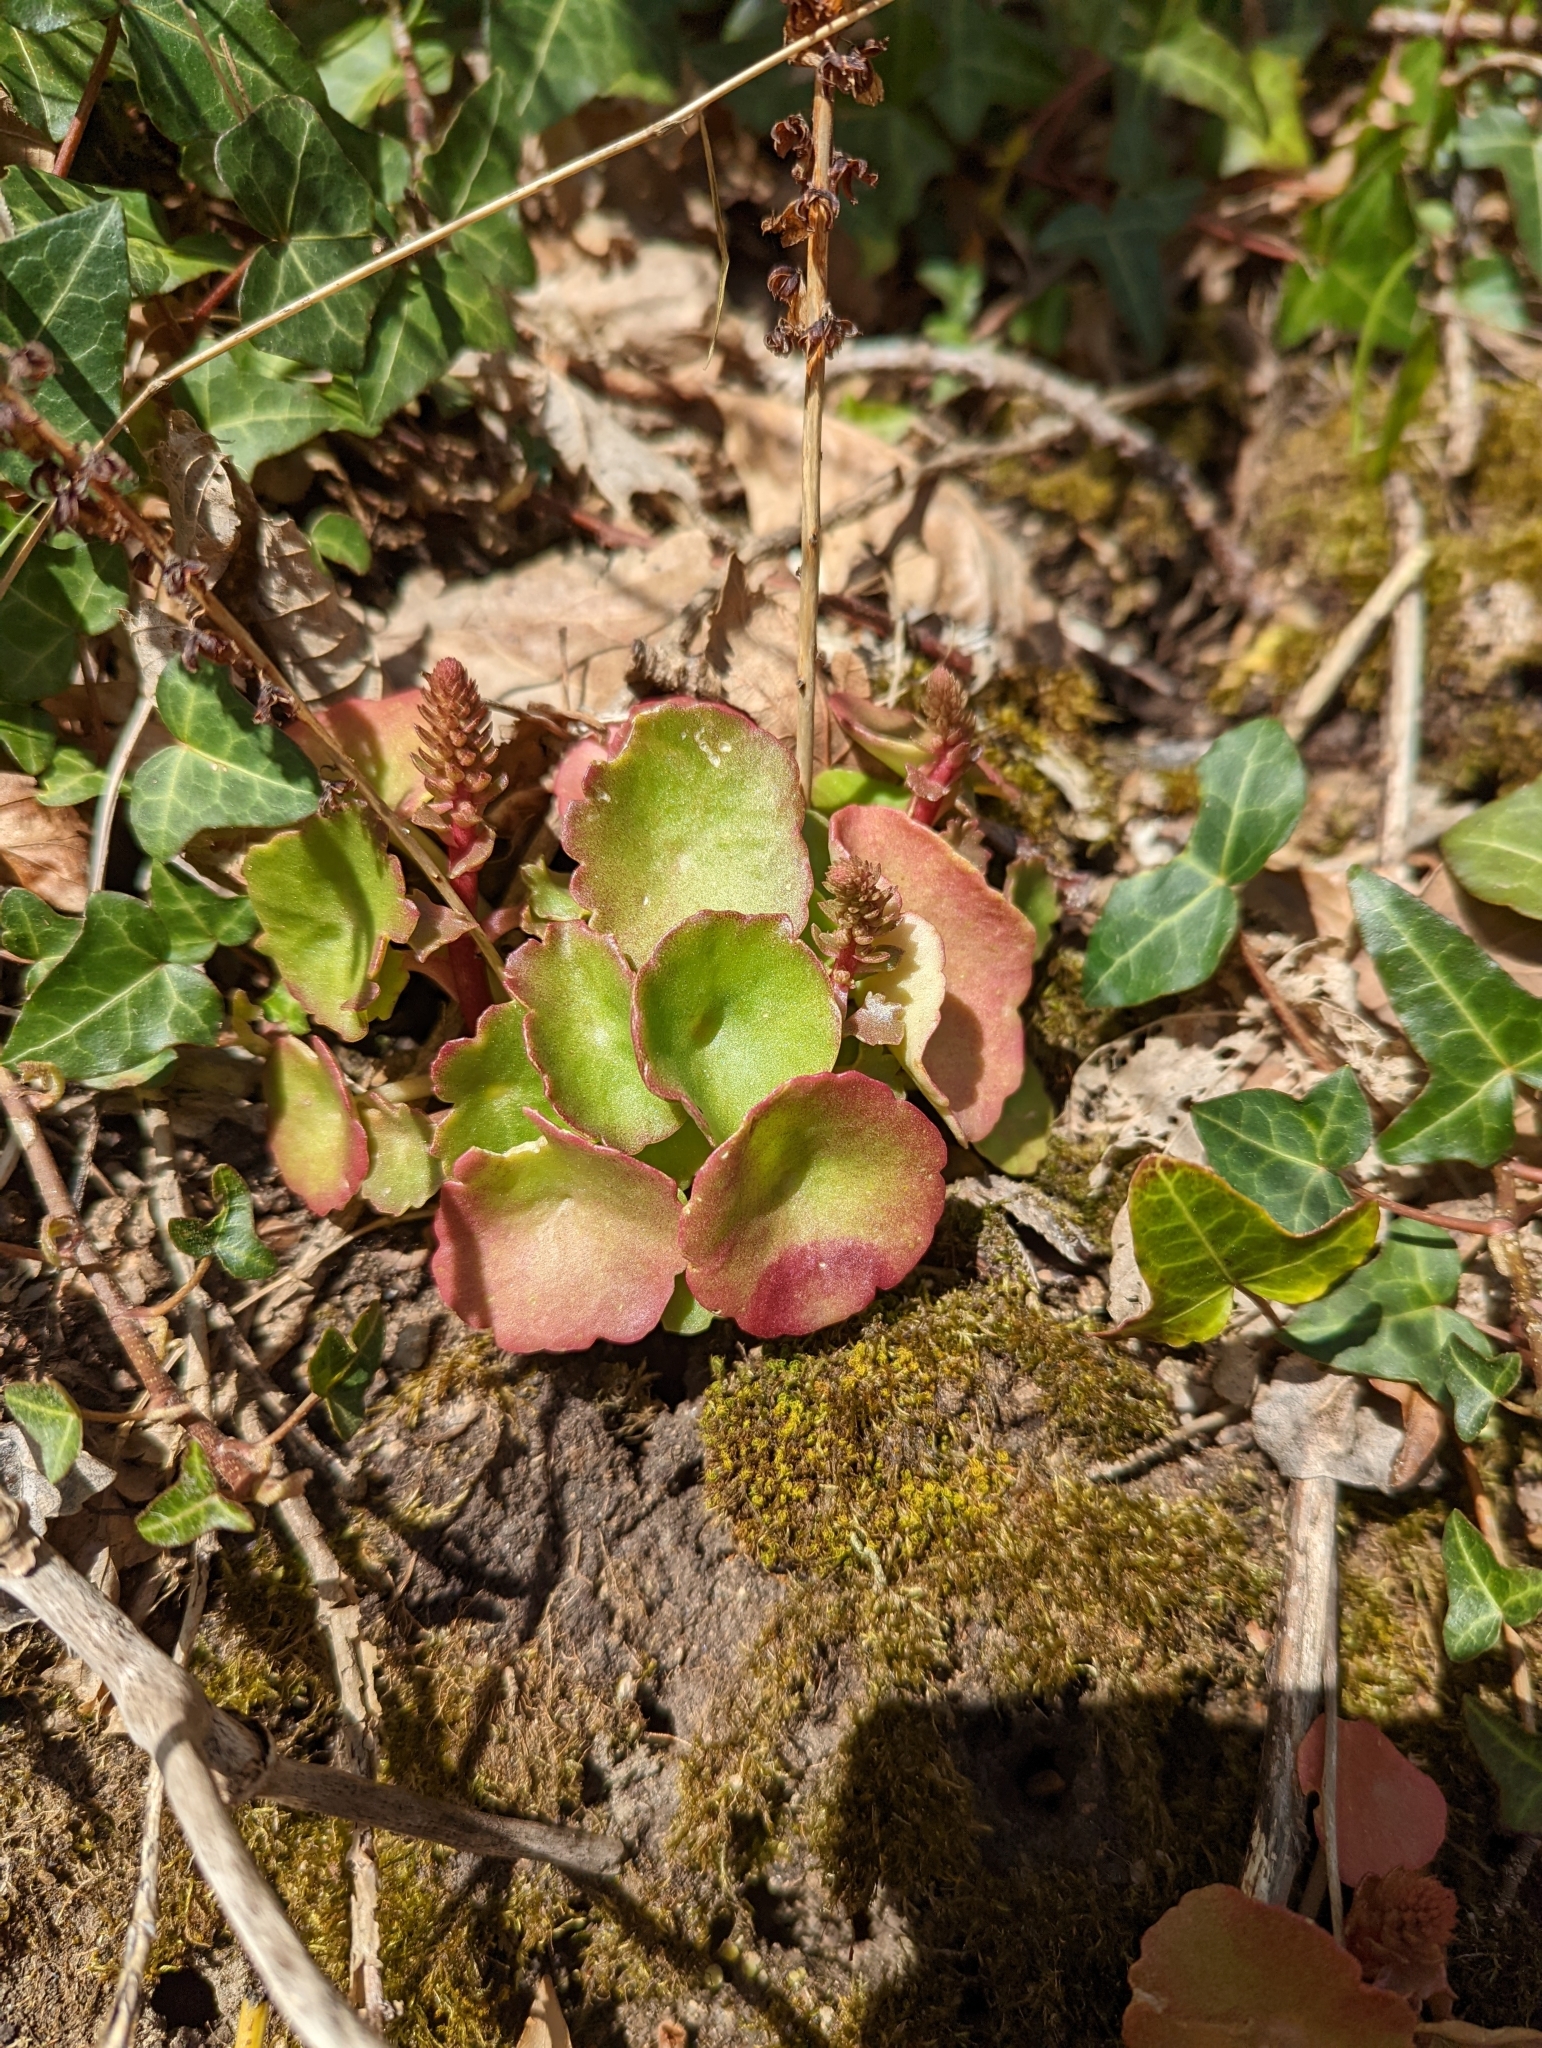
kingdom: Plantae
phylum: Tracheophyta
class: Magnoliopsida
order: Saxifragales
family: Crassulaceae
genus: Umbilicus
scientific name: Umbilicus rupestris
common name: Navelwort
